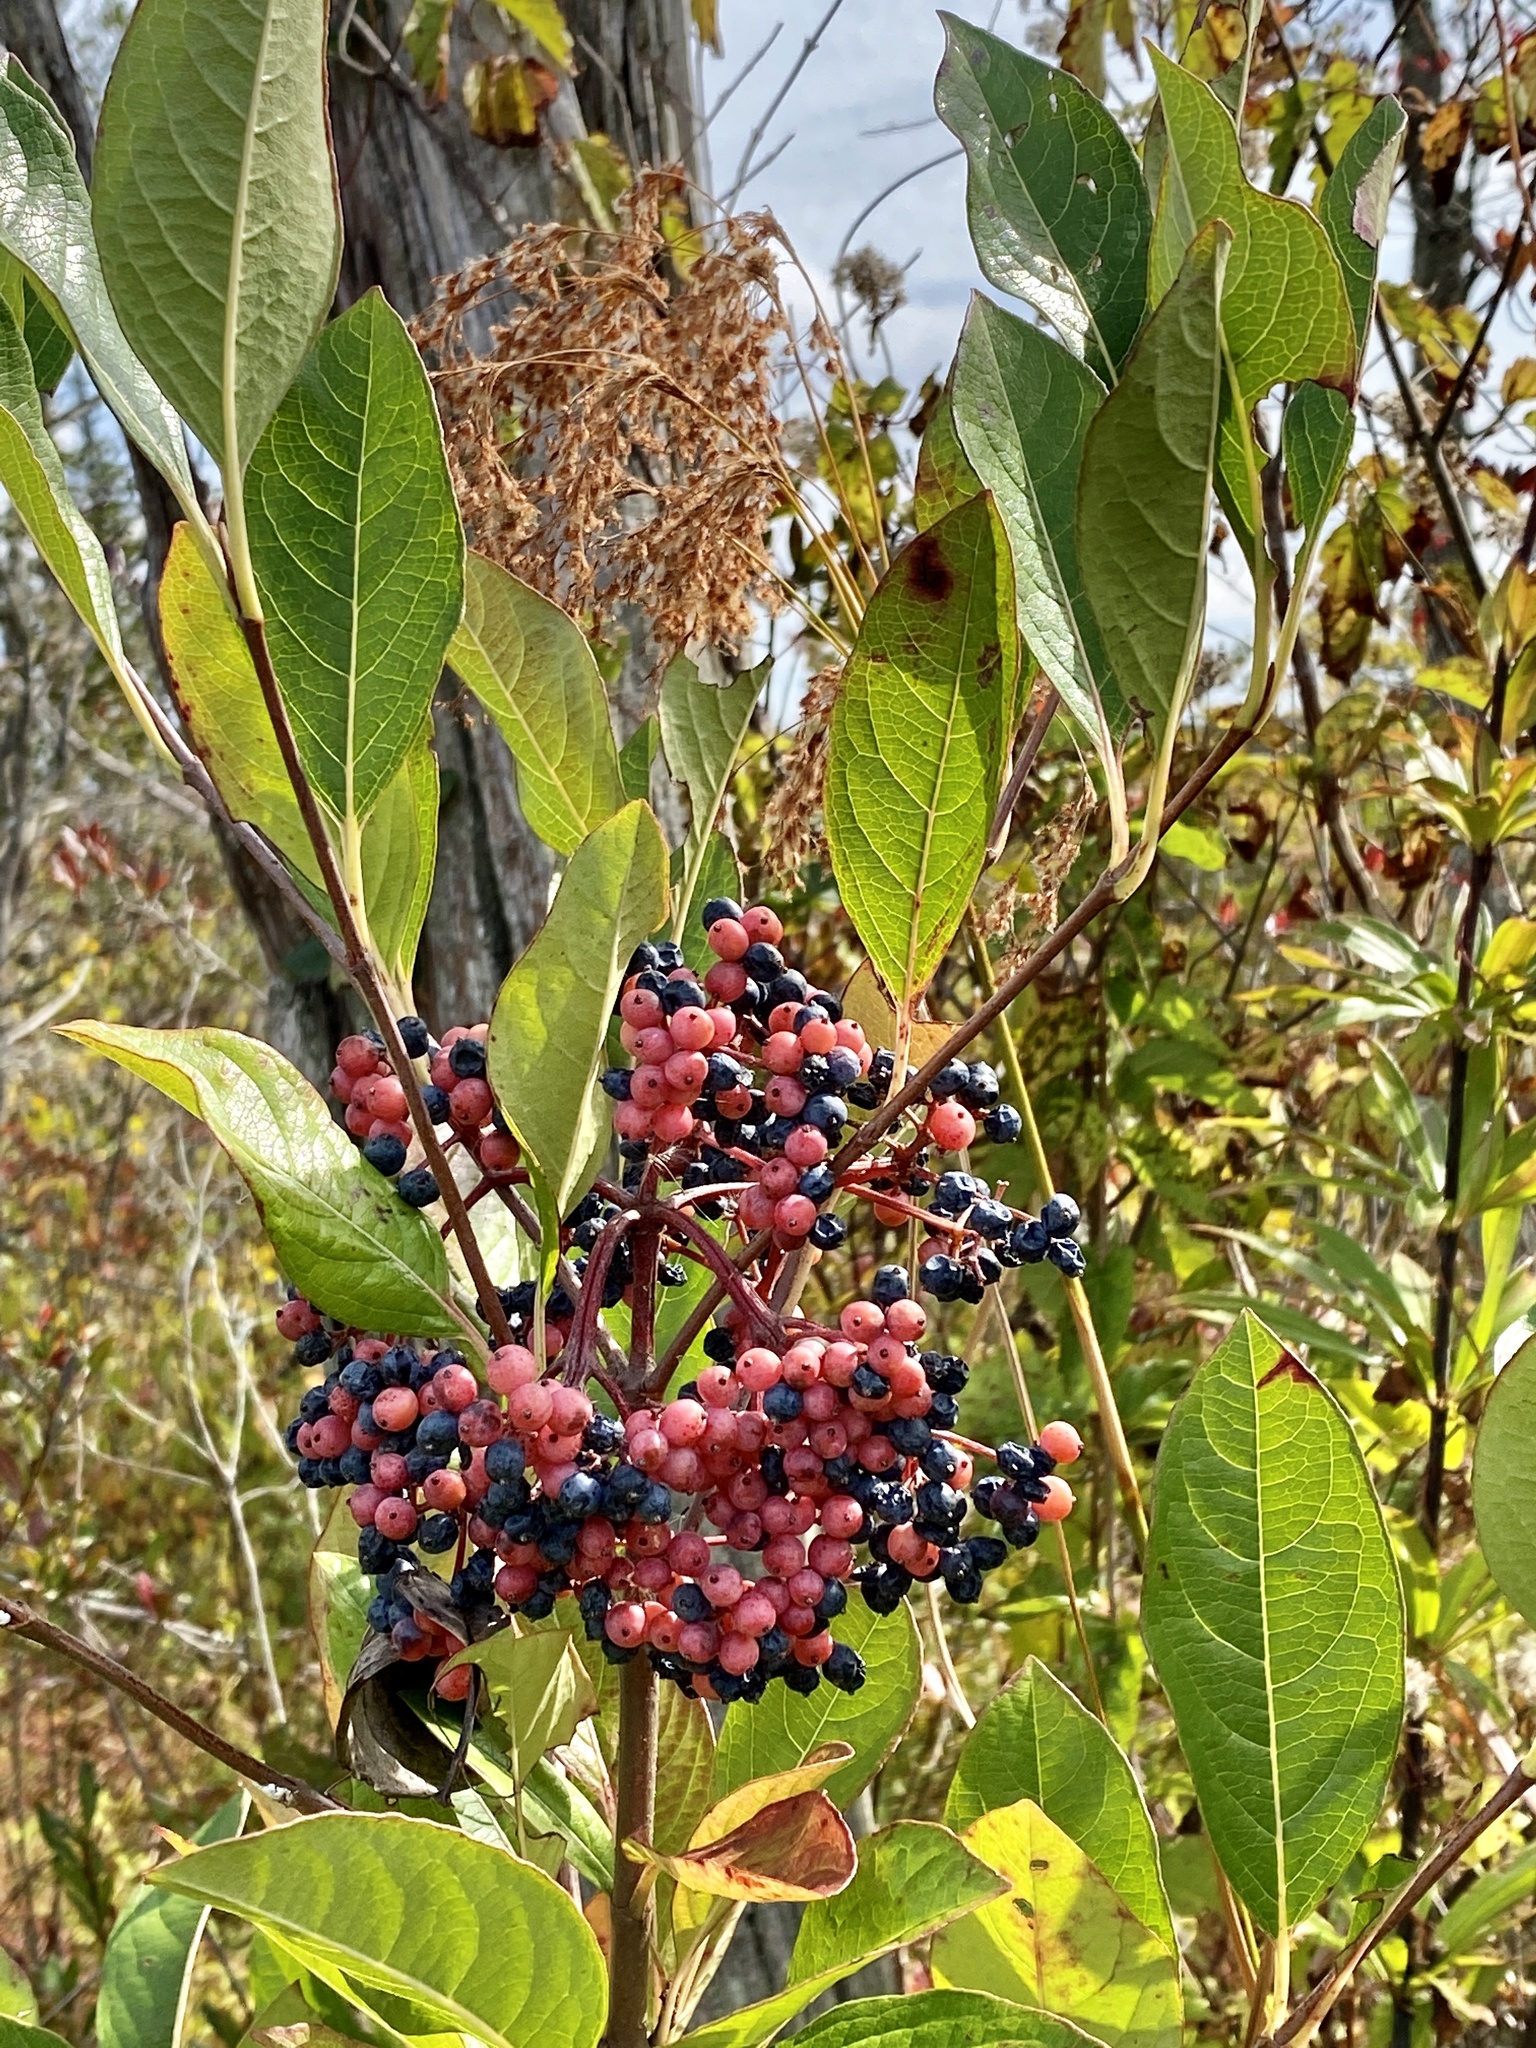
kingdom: Plantae
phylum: Tracheophyta
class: Magnoliopsida
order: Dipsacales
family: Viburnaceae
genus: Viburnum
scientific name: Viburnum nudum
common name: Possum haw
